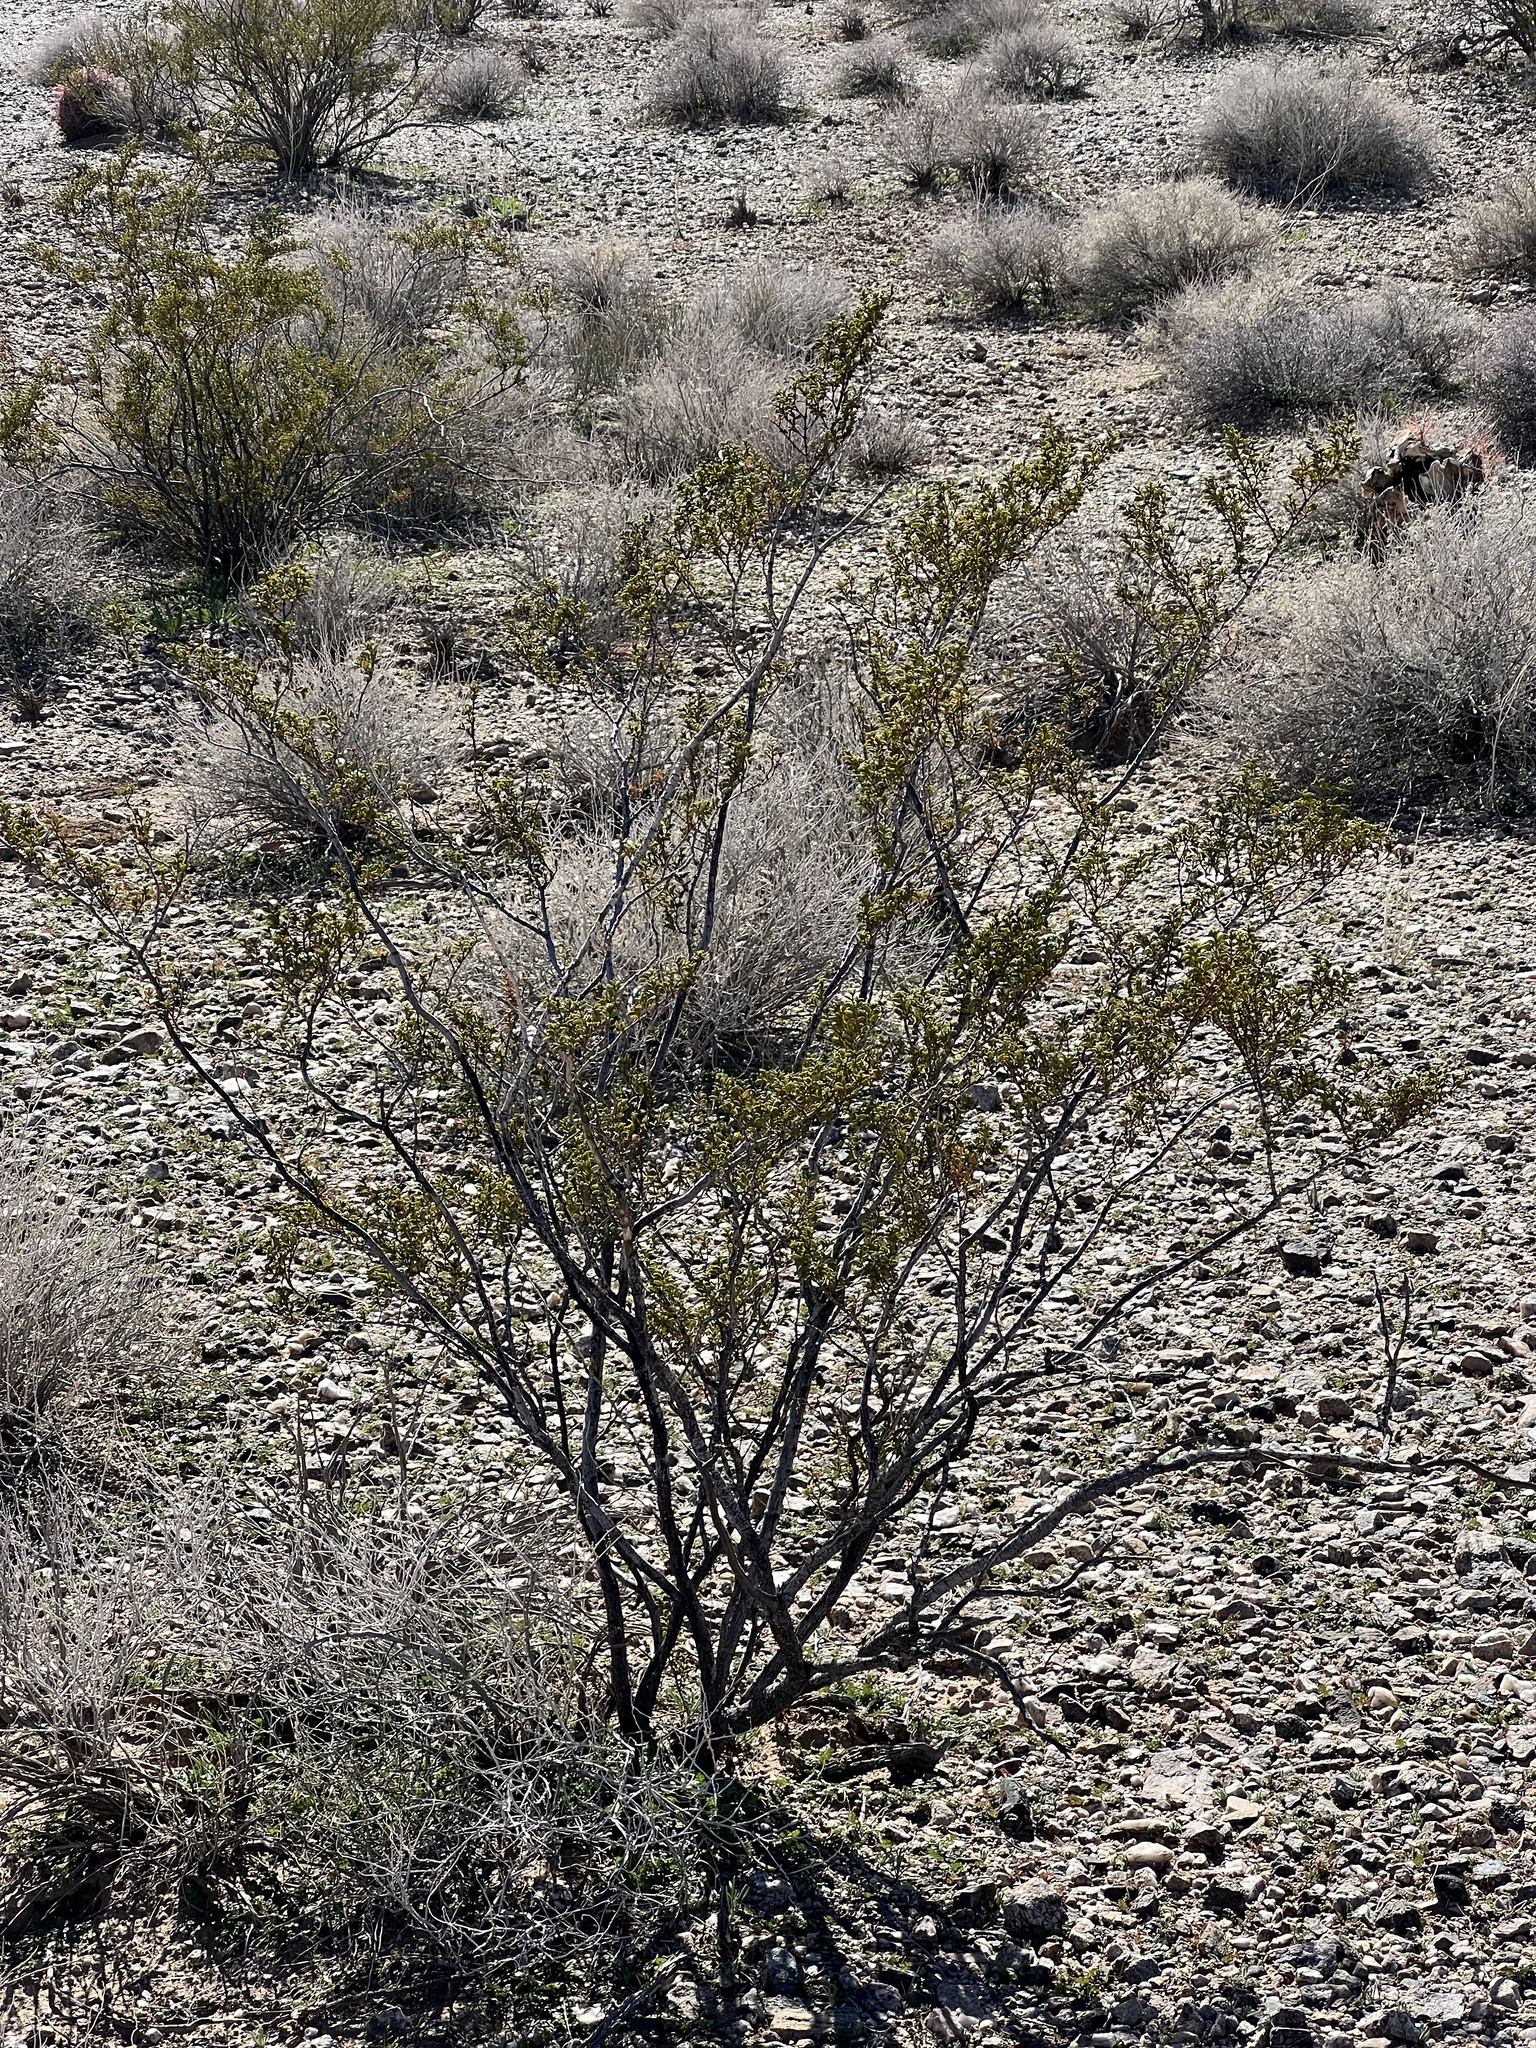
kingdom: Plantae
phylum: Tracheophyta
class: Magnoliopsida
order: Zygophyllales
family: Zygophyllaceae
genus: Larrea
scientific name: Larrea tridentata
